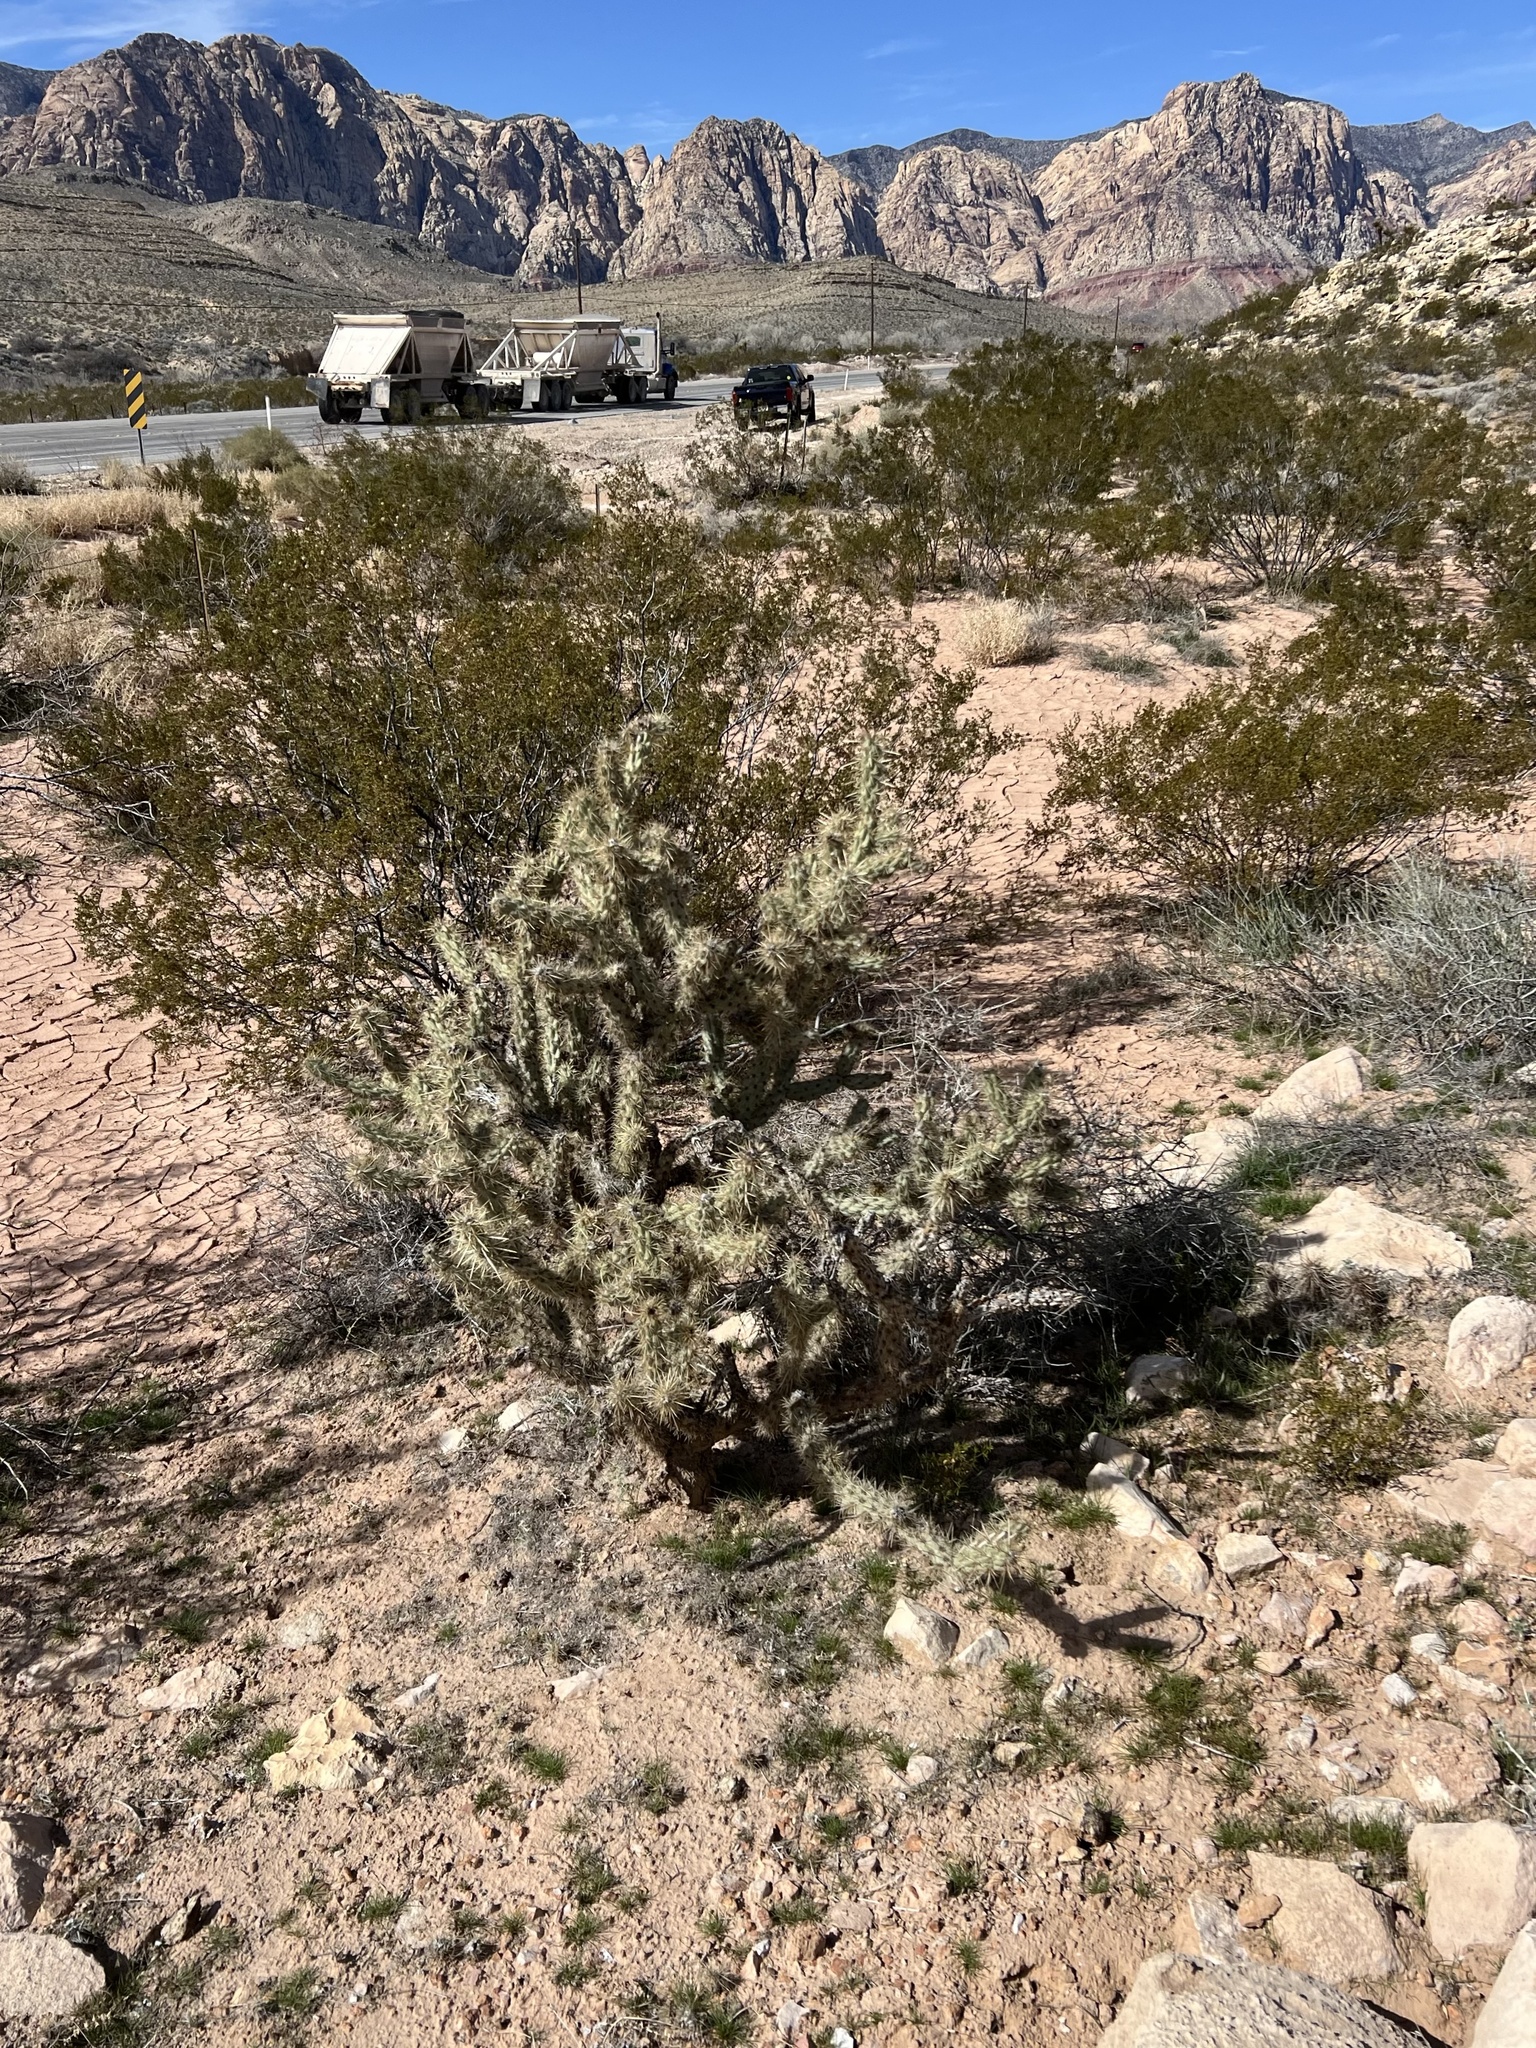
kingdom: Plantae
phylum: Tracheophyta
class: Magnoliopsida
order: Caryophyllales
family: Cactaceae
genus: Cylindropuntia
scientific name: Cylindropuntia acanthocarpa
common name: Buckhorn cholla
